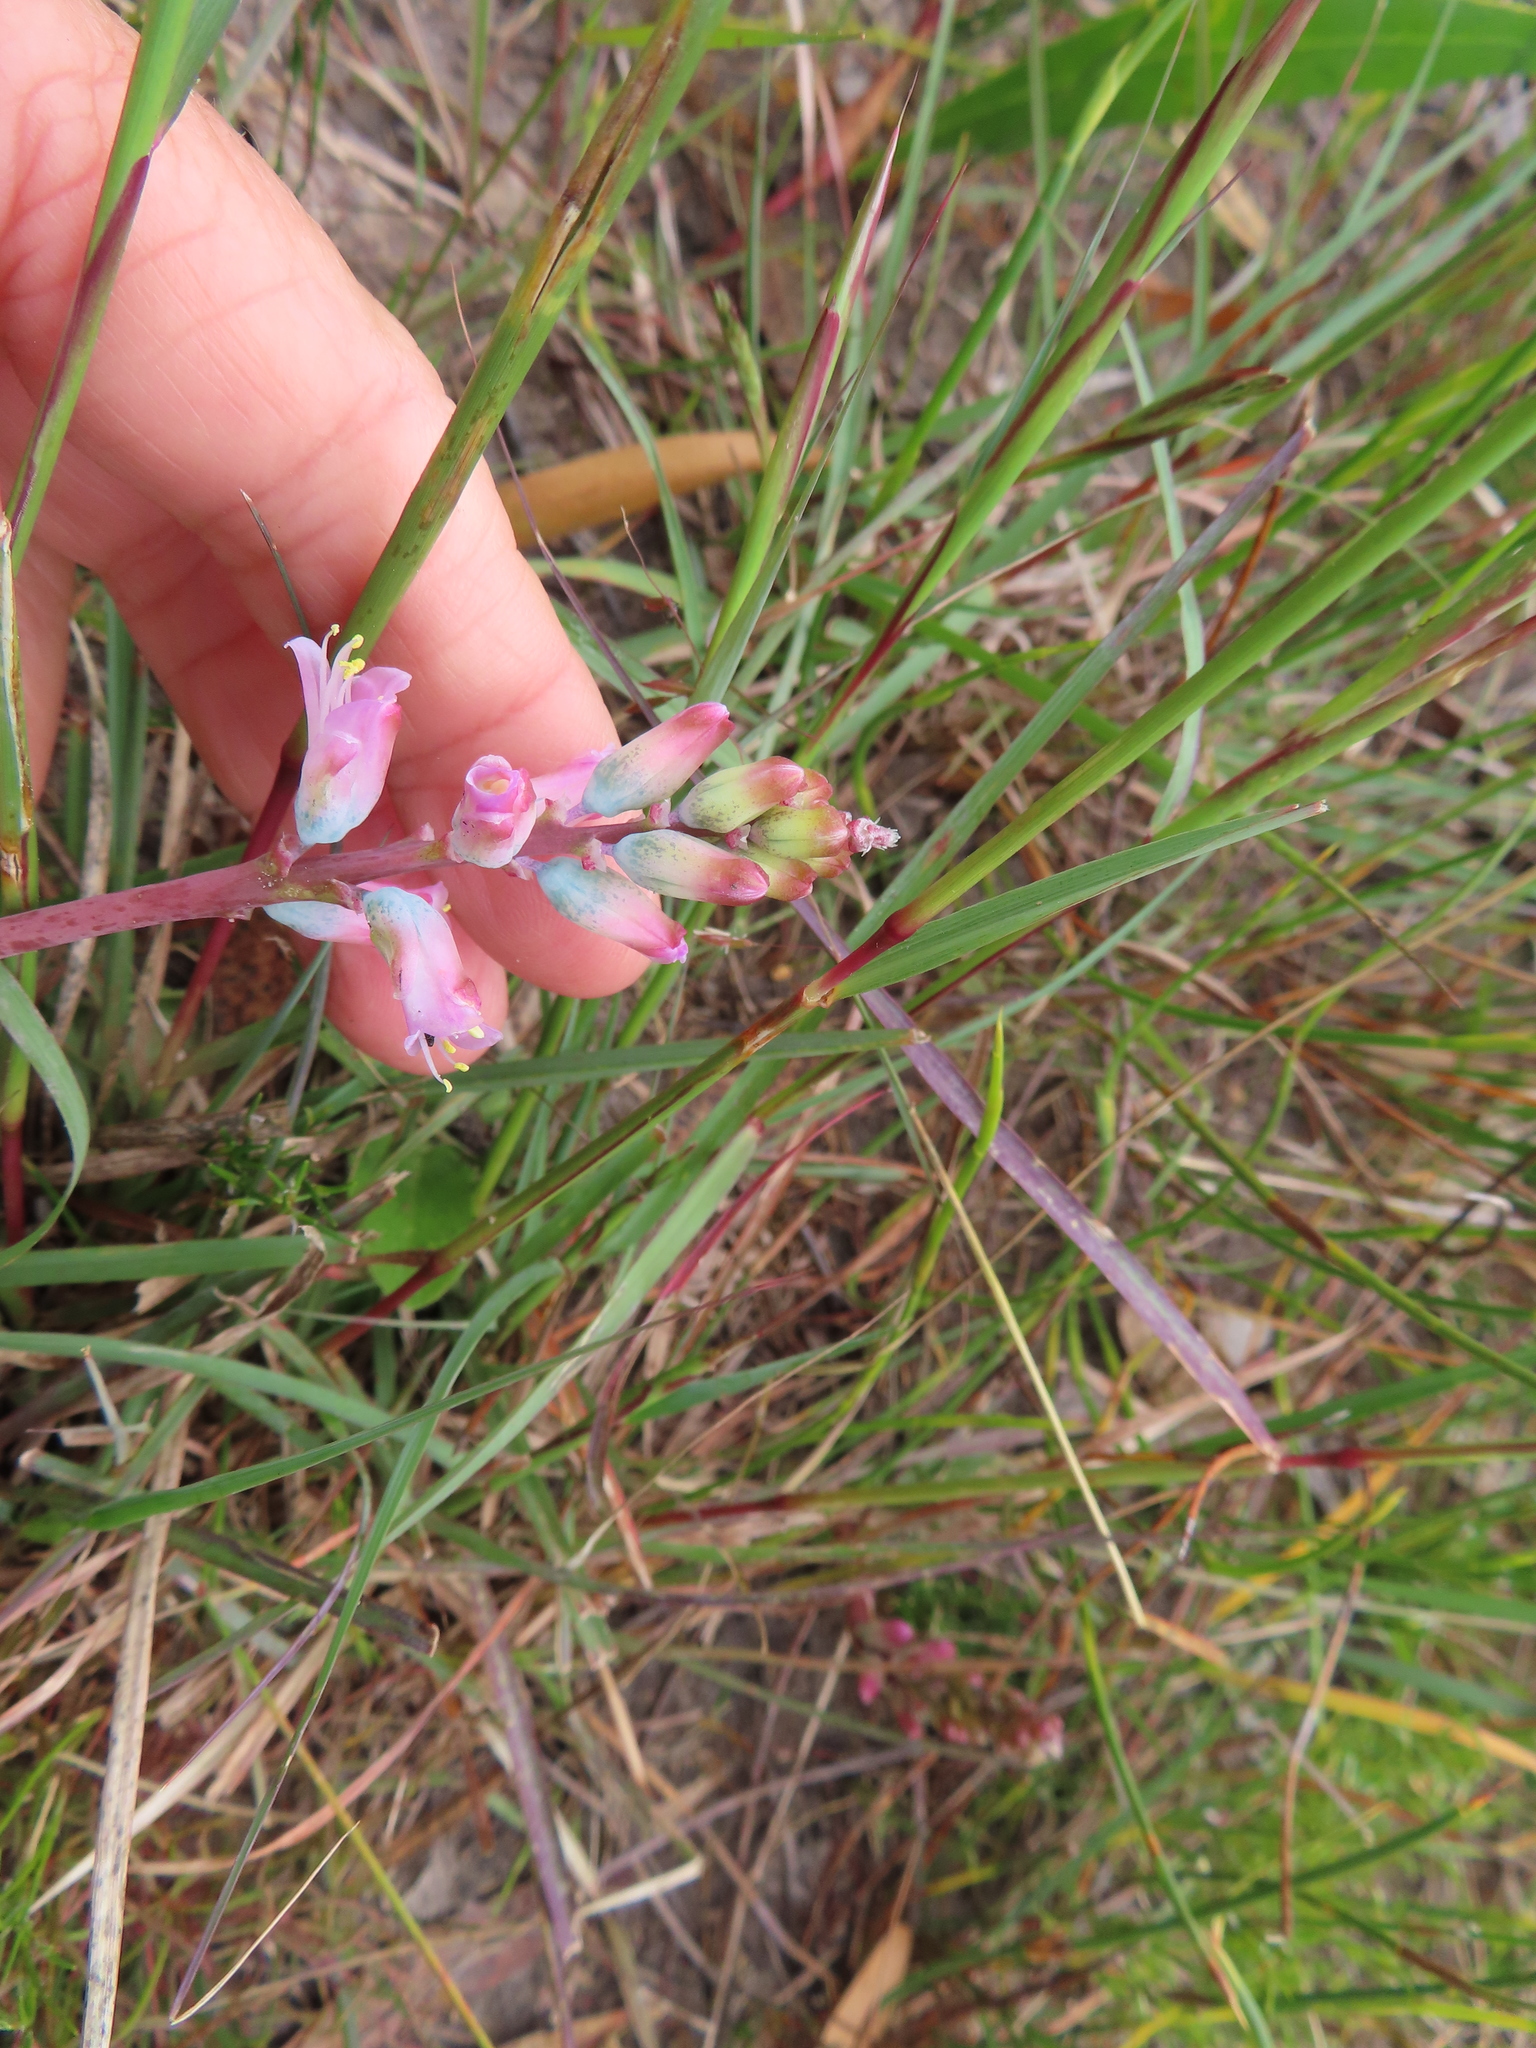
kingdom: Plantae
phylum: Tracheophyta
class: Liliopsida
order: Asparagales
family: Asparagaceae
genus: Lachenalia
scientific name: Lachenalia rosea
